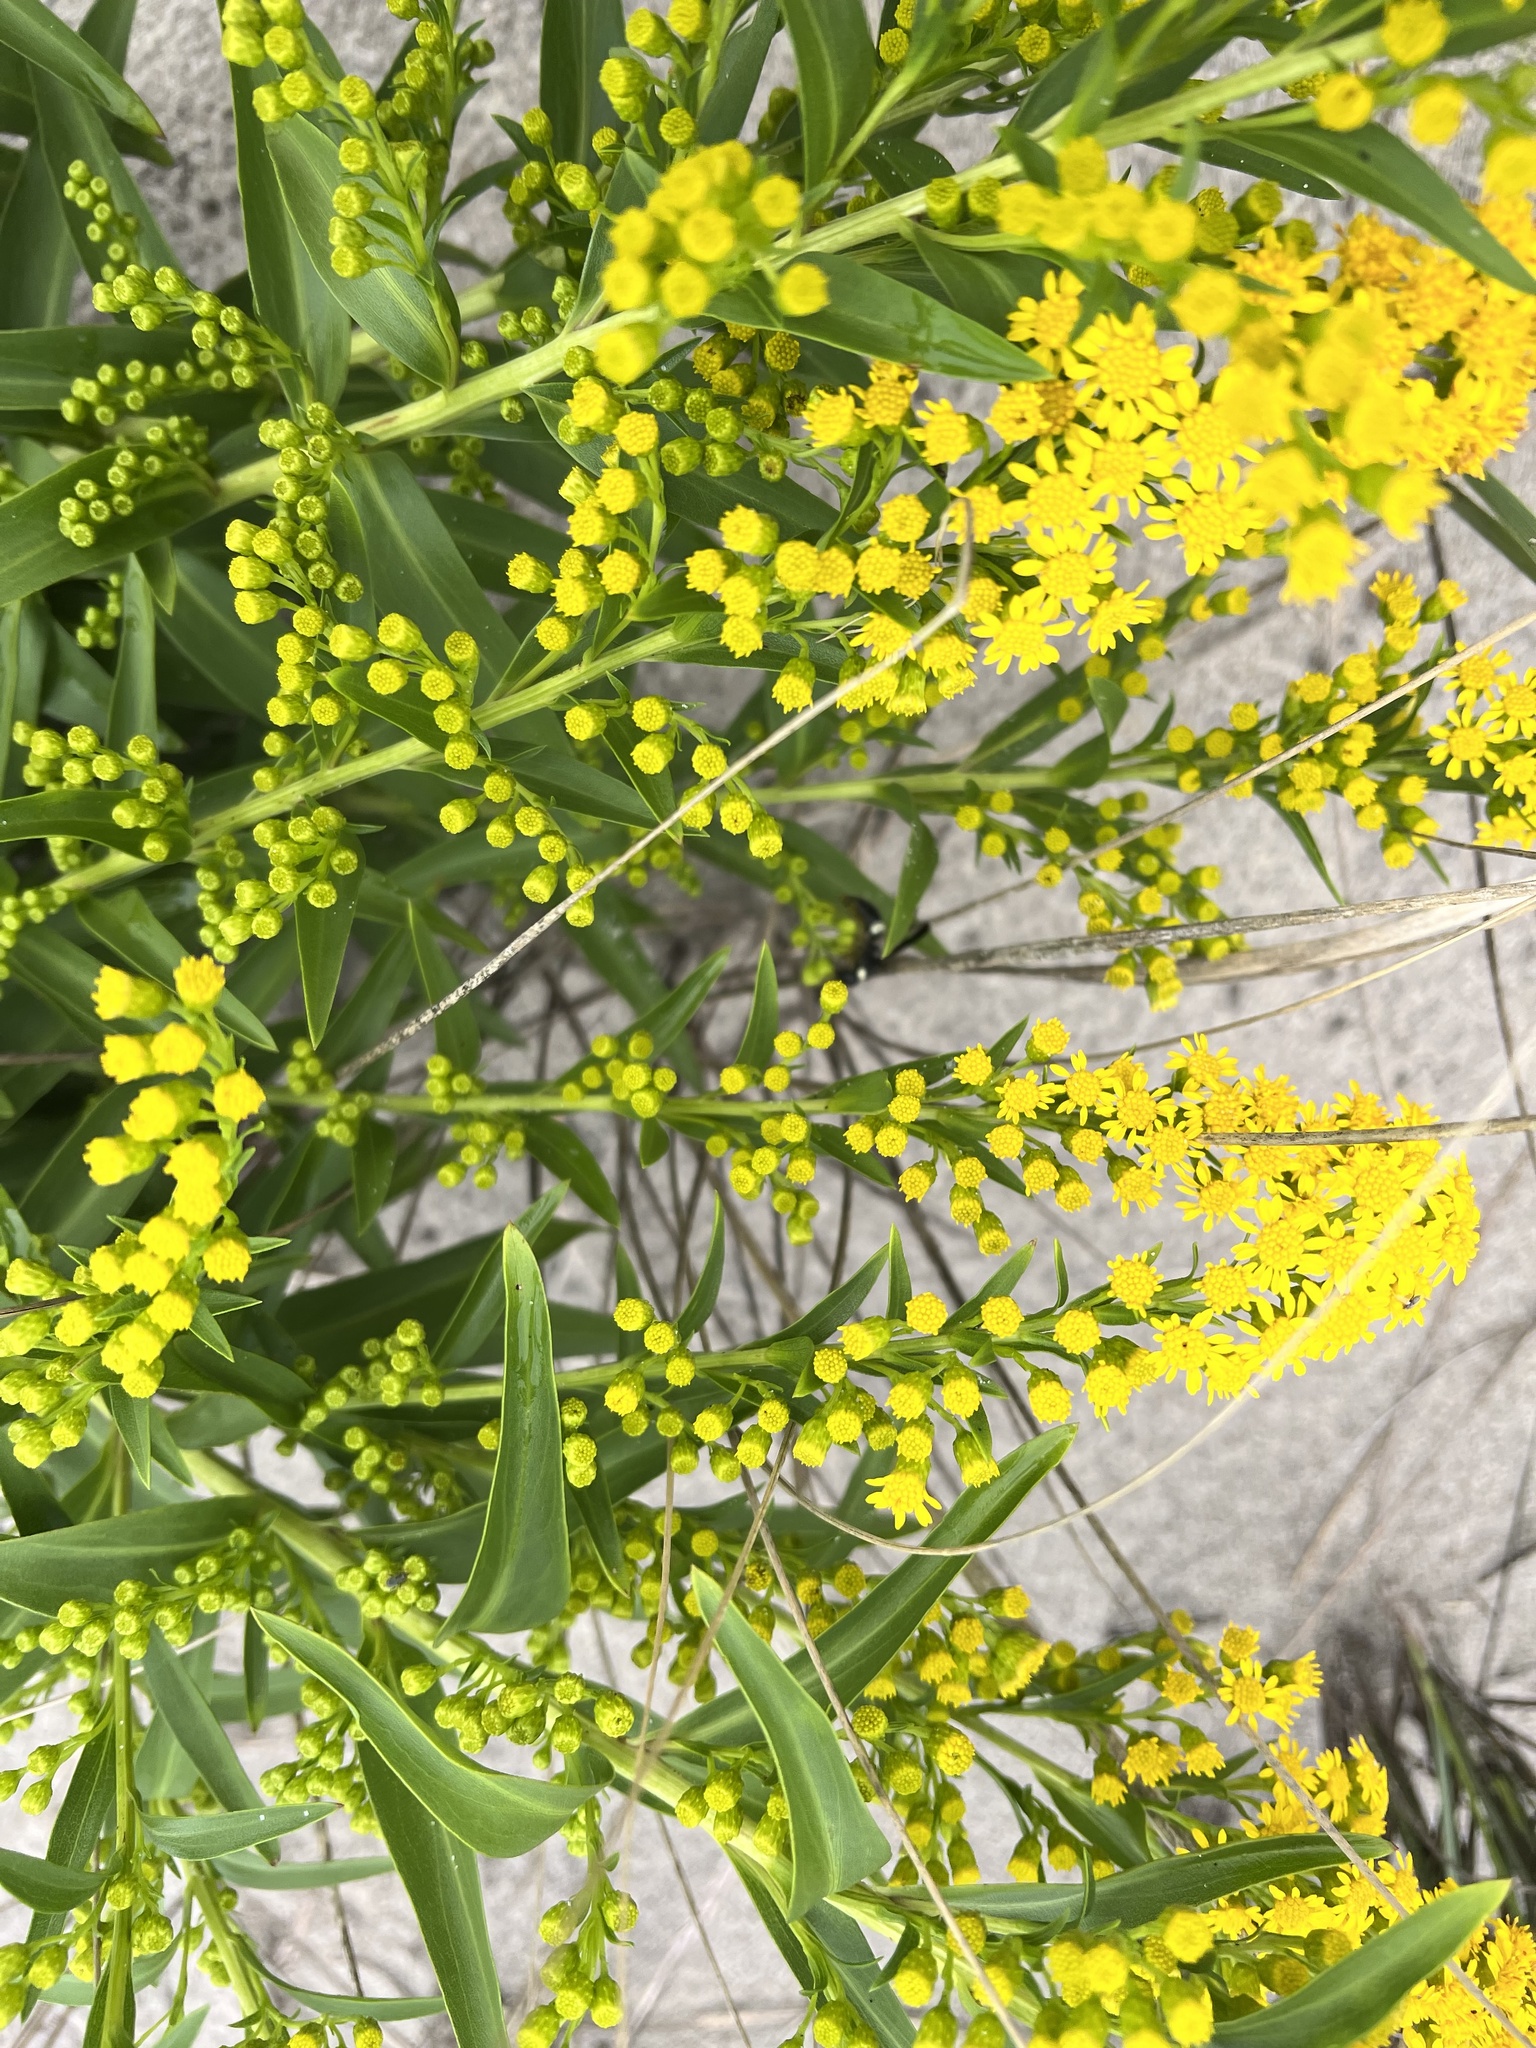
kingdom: Plantae
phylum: Tracheophyta
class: Magnoliopsida
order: Asterales
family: Asteraceae
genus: Solidago
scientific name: Solidago sempervirens
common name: Salt-marsh goldenrod
